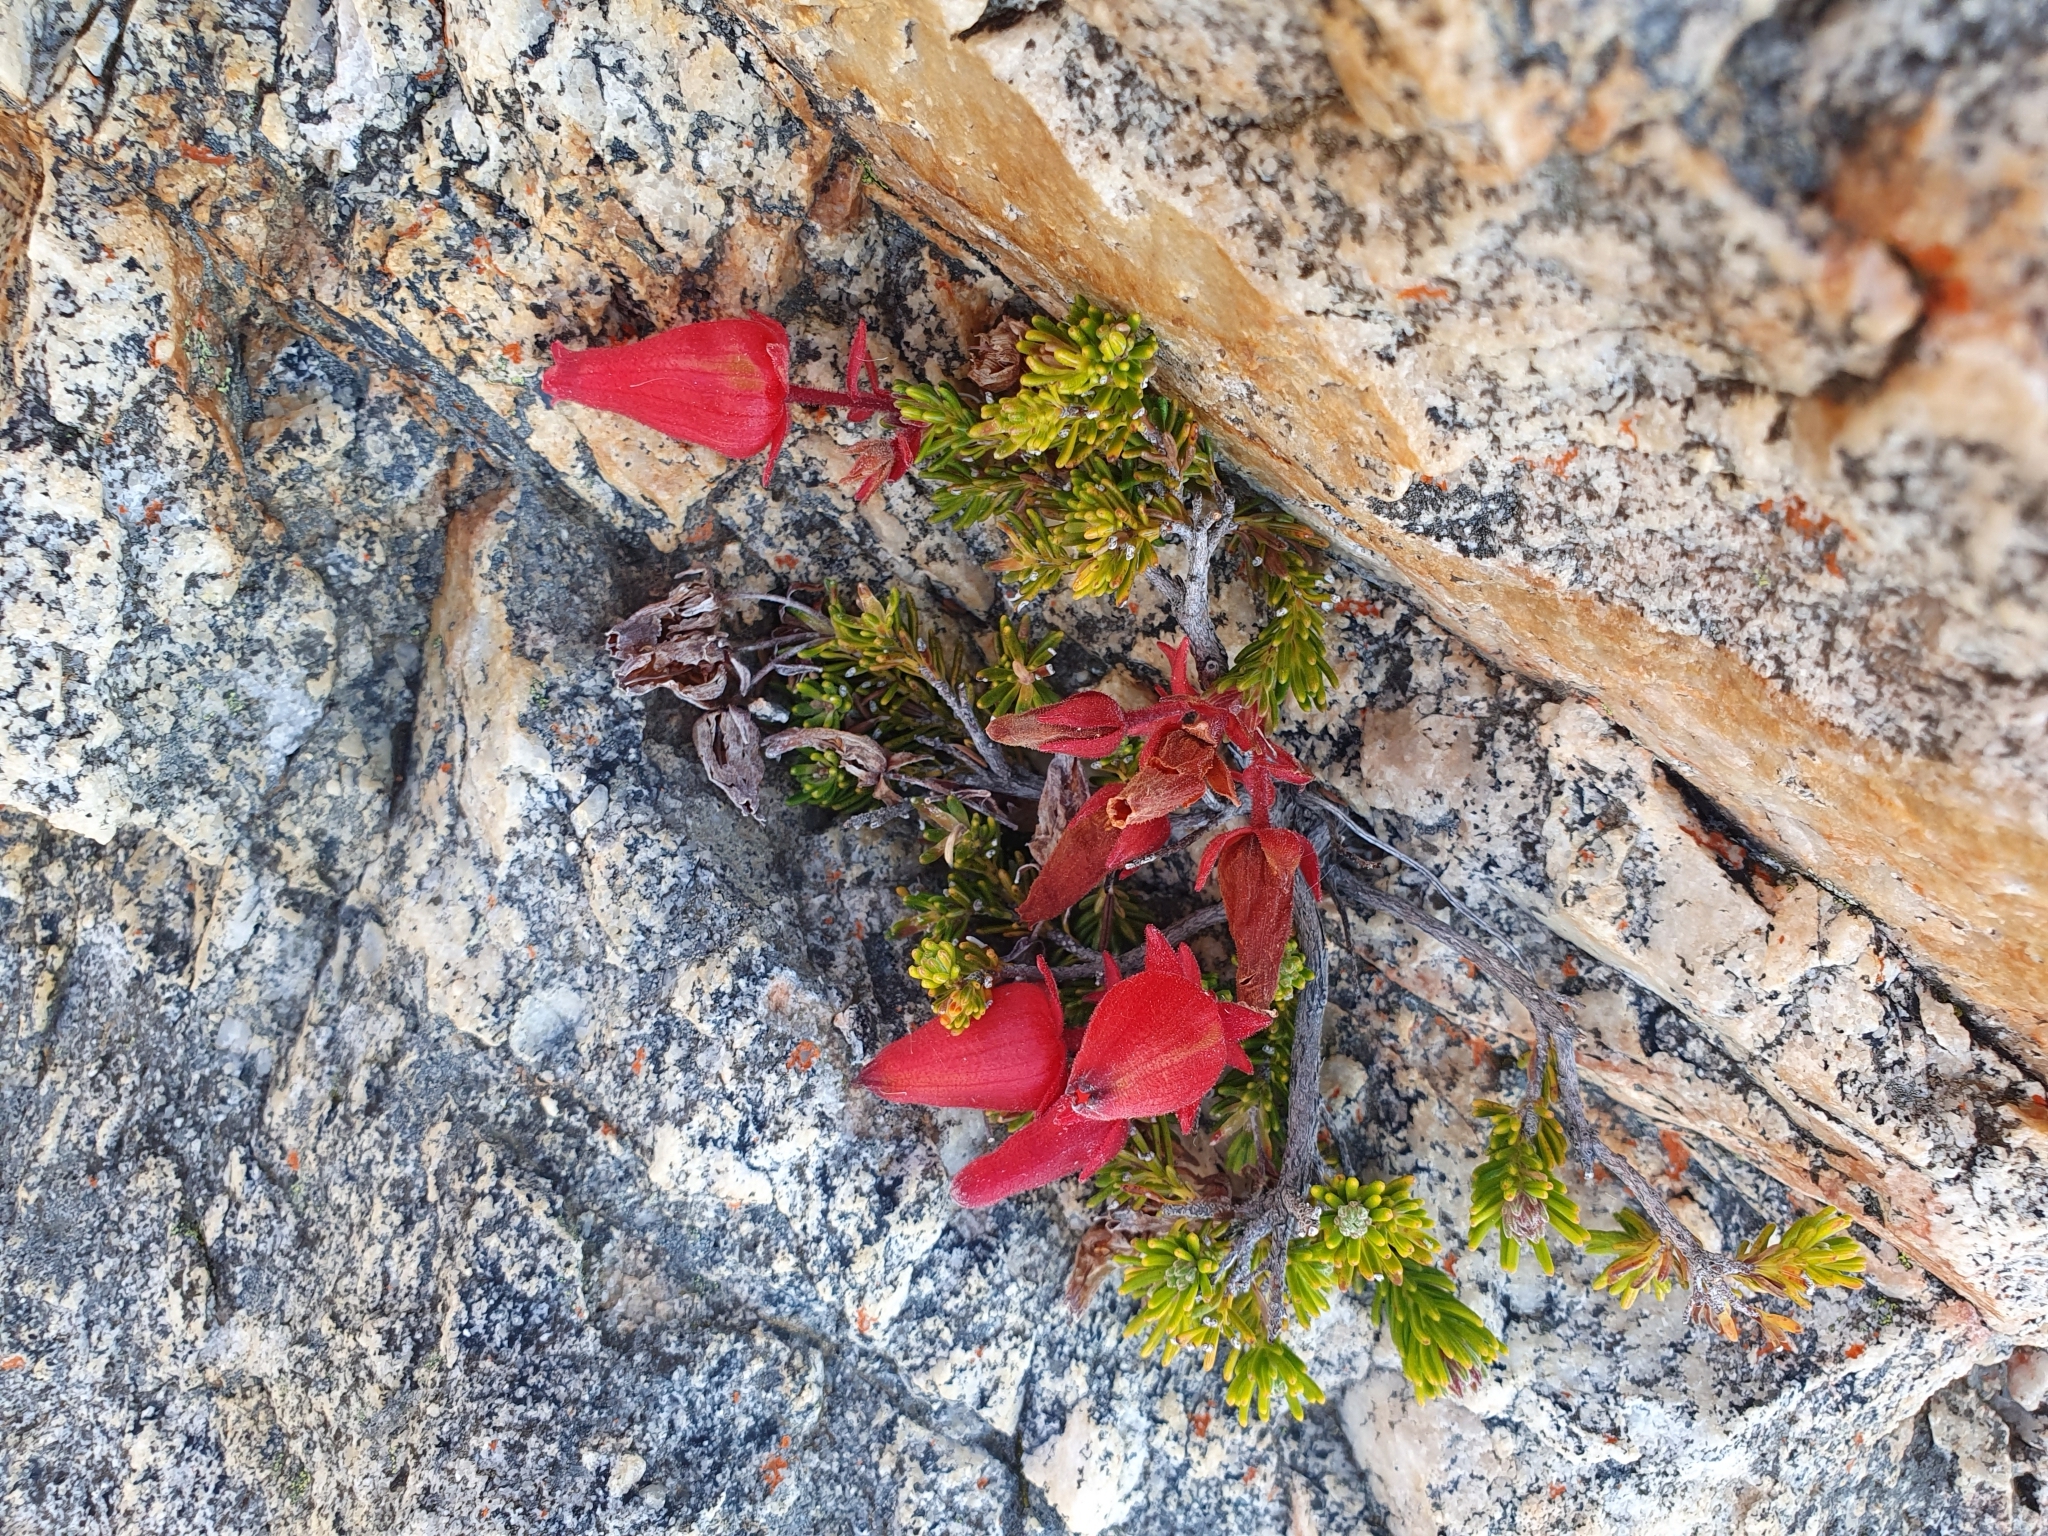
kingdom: Plantae
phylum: Tracheophyta
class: Magnoliopsida
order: Ericales
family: Ericaceae
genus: Erica
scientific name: Erica cameronii
